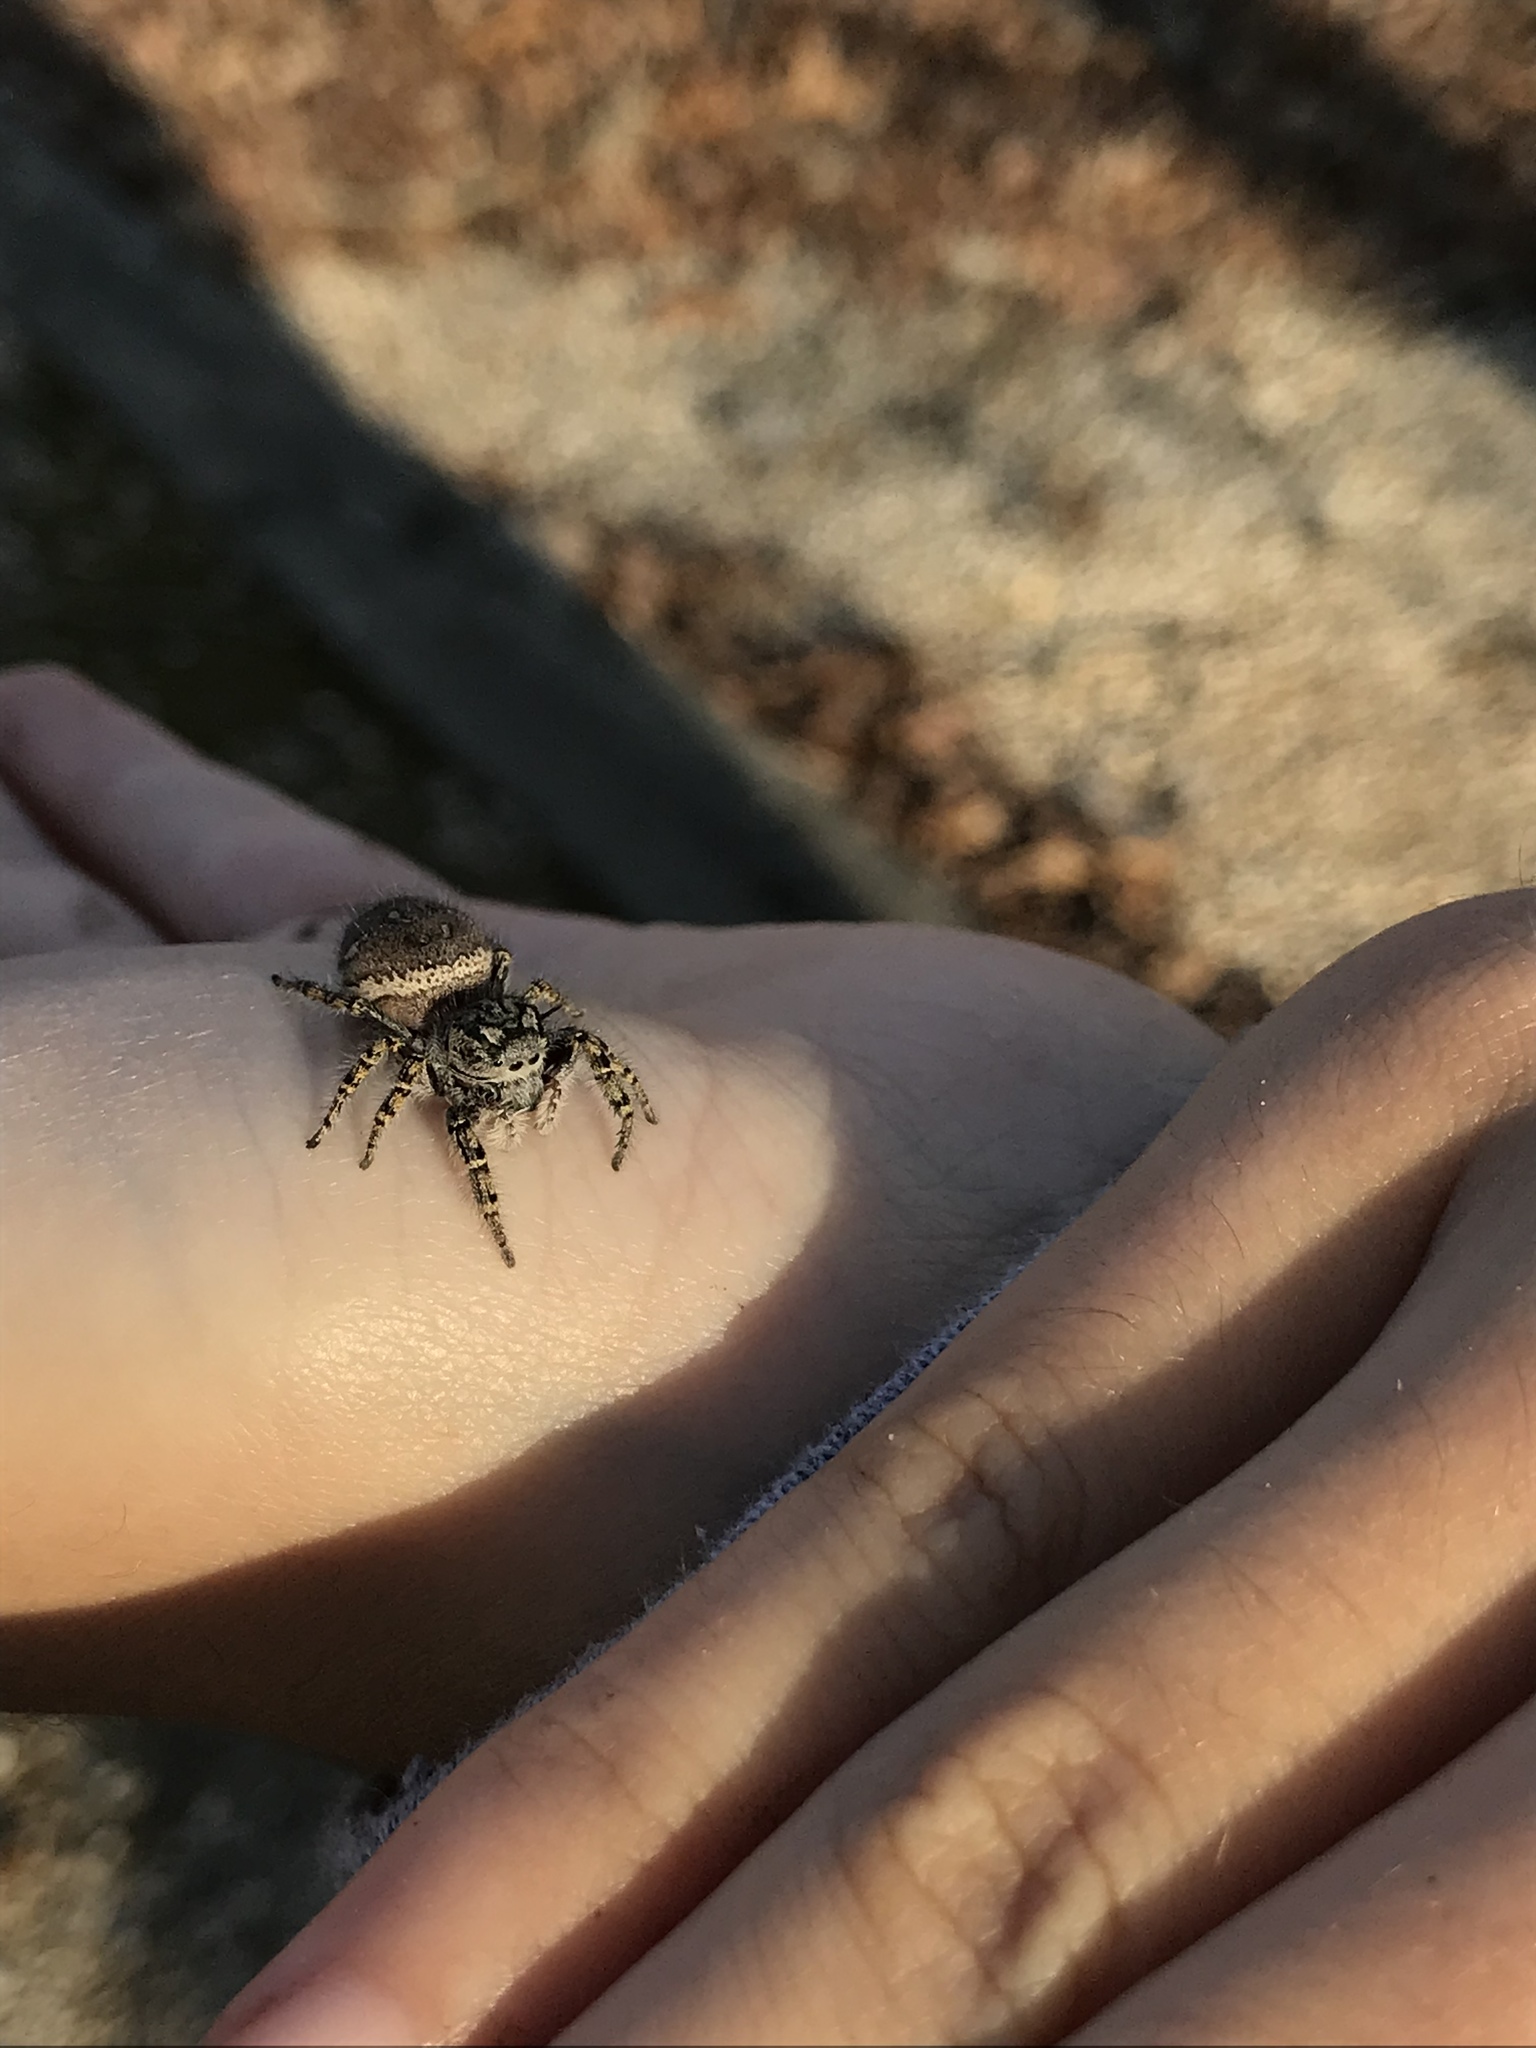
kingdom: Animalia
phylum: Arthropoda
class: Arachnida
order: Araneae
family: Salticidae
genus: Phidippus
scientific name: Phidippus mystaceus
